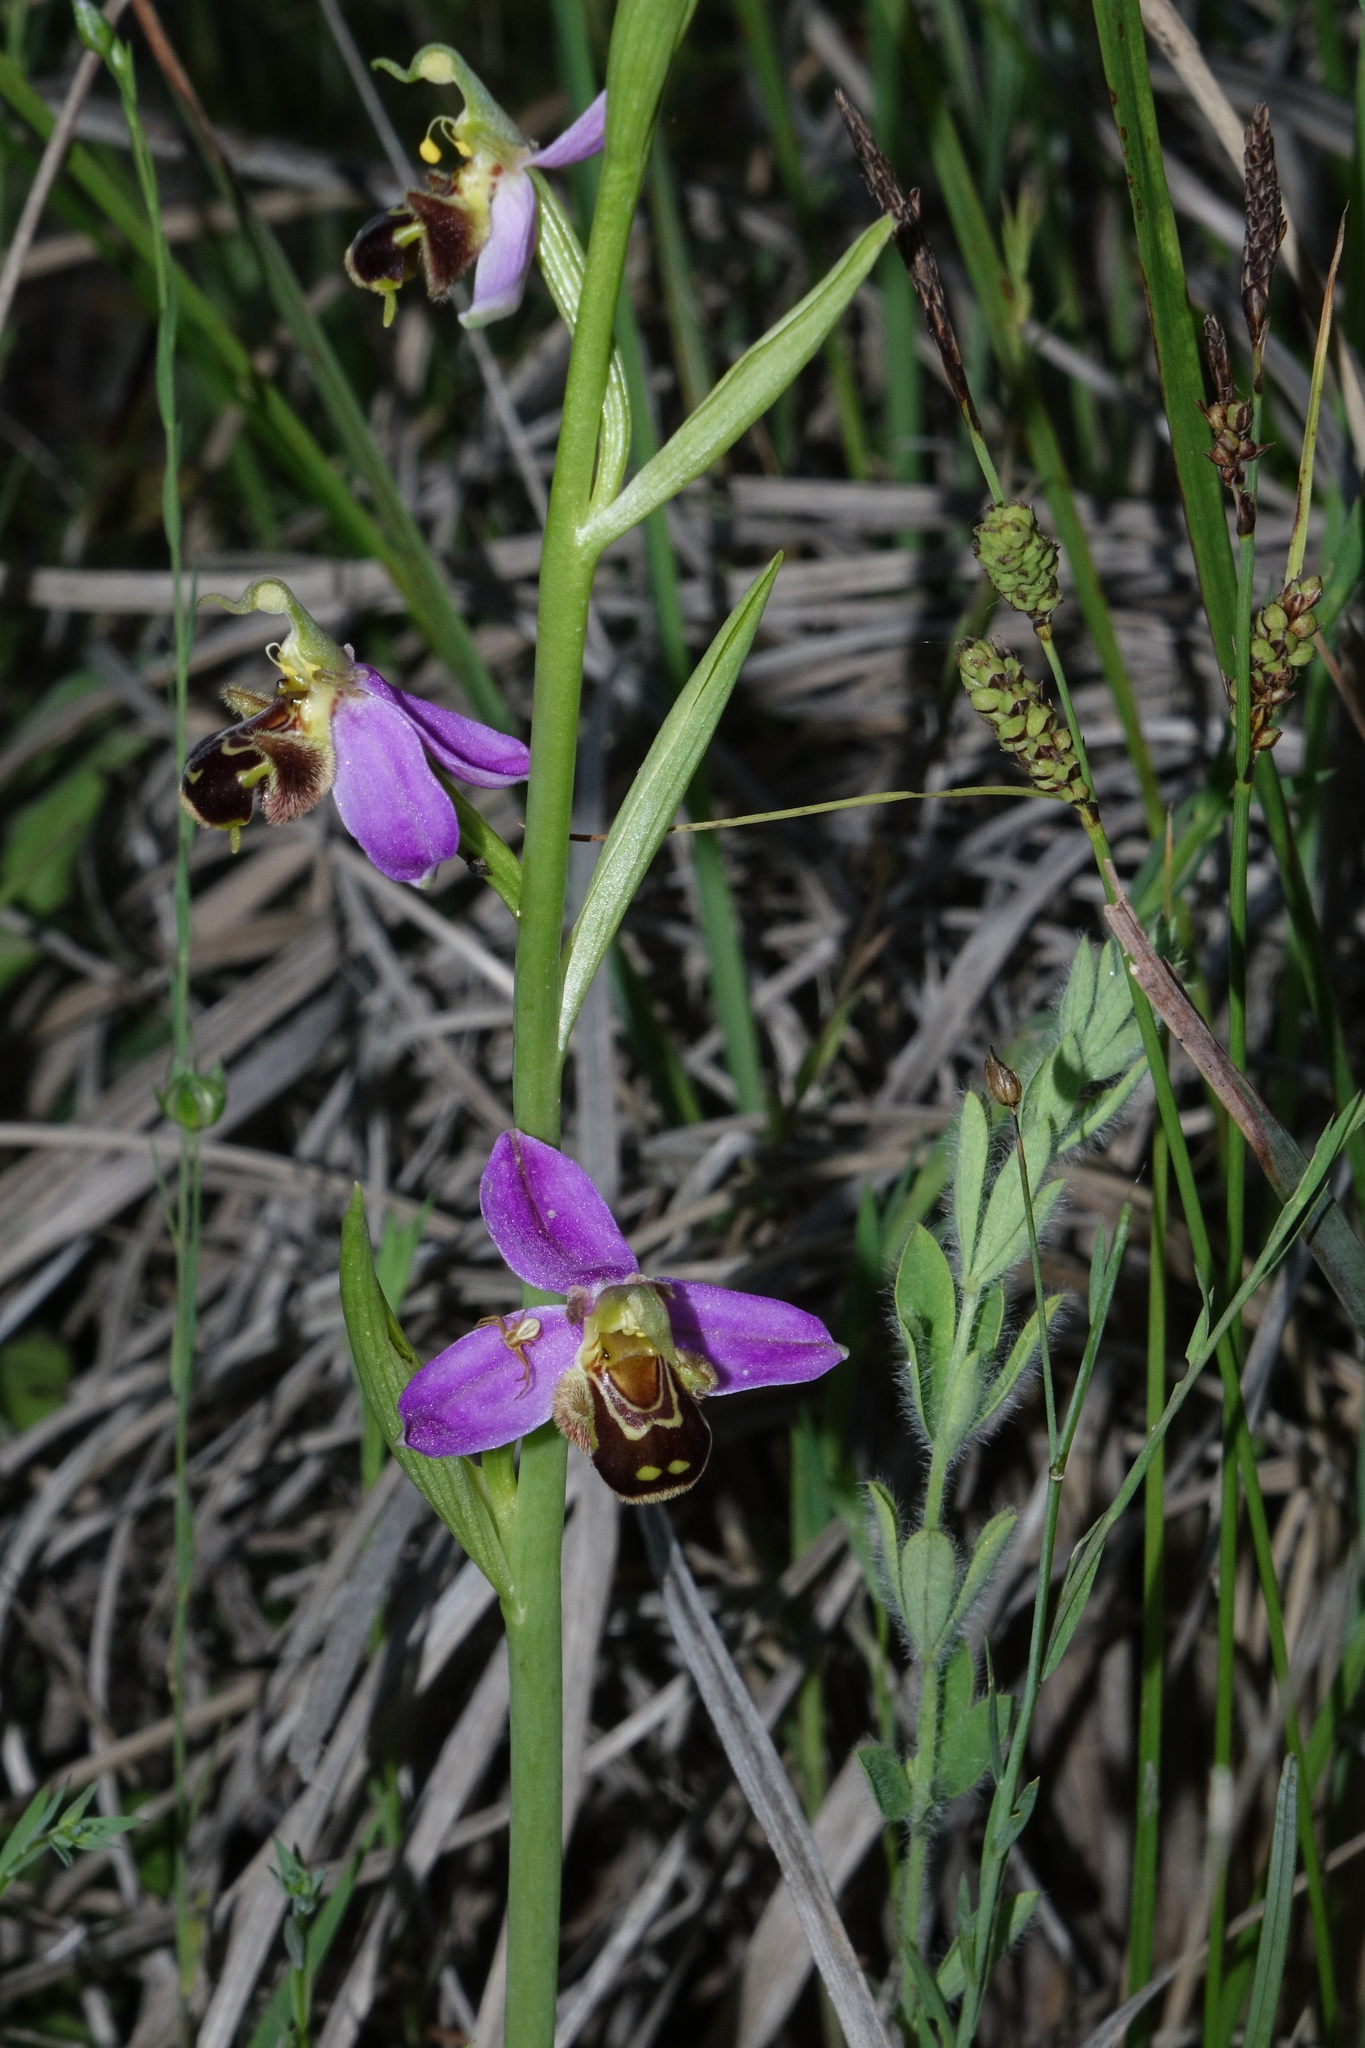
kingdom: Plantae
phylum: Tracheophyta
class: Liliopsida
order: Asparagales
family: Orchidaceae
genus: Ophrys
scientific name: Ophrys apifera
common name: Bee orchid
